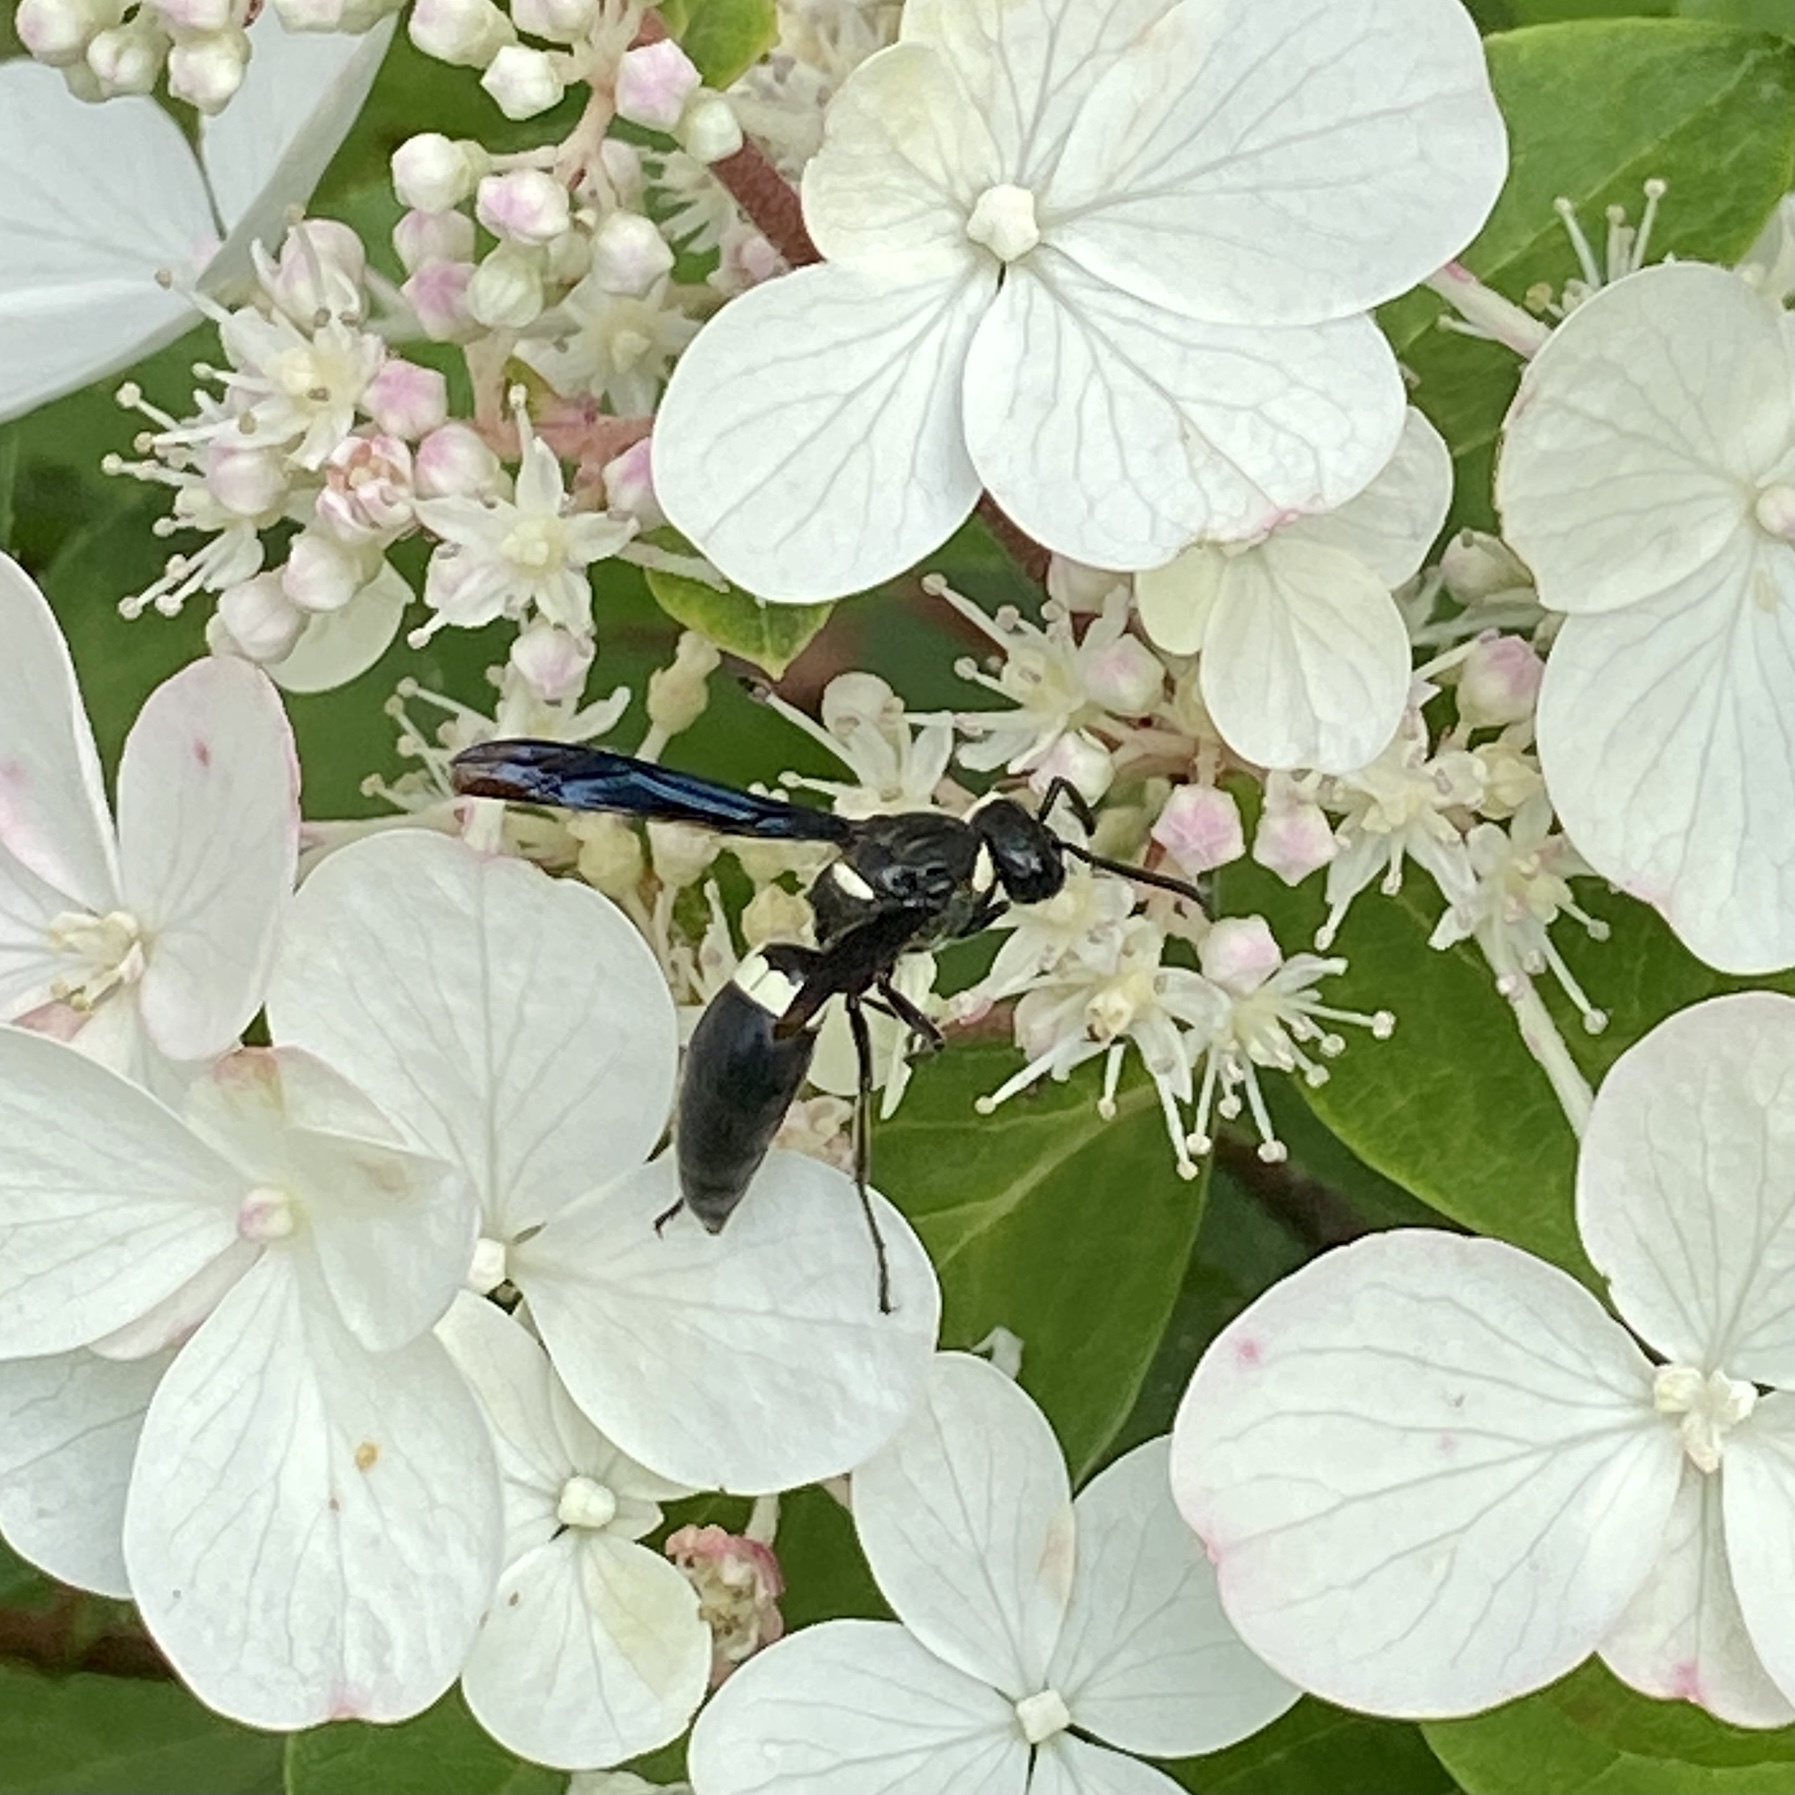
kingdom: Animalia
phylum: Arthropoda
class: Insecta
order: Hymenoptera
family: Eumenidae
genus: Monobia
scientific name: Monobia quadridens
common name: Four-toothed mason wasp
